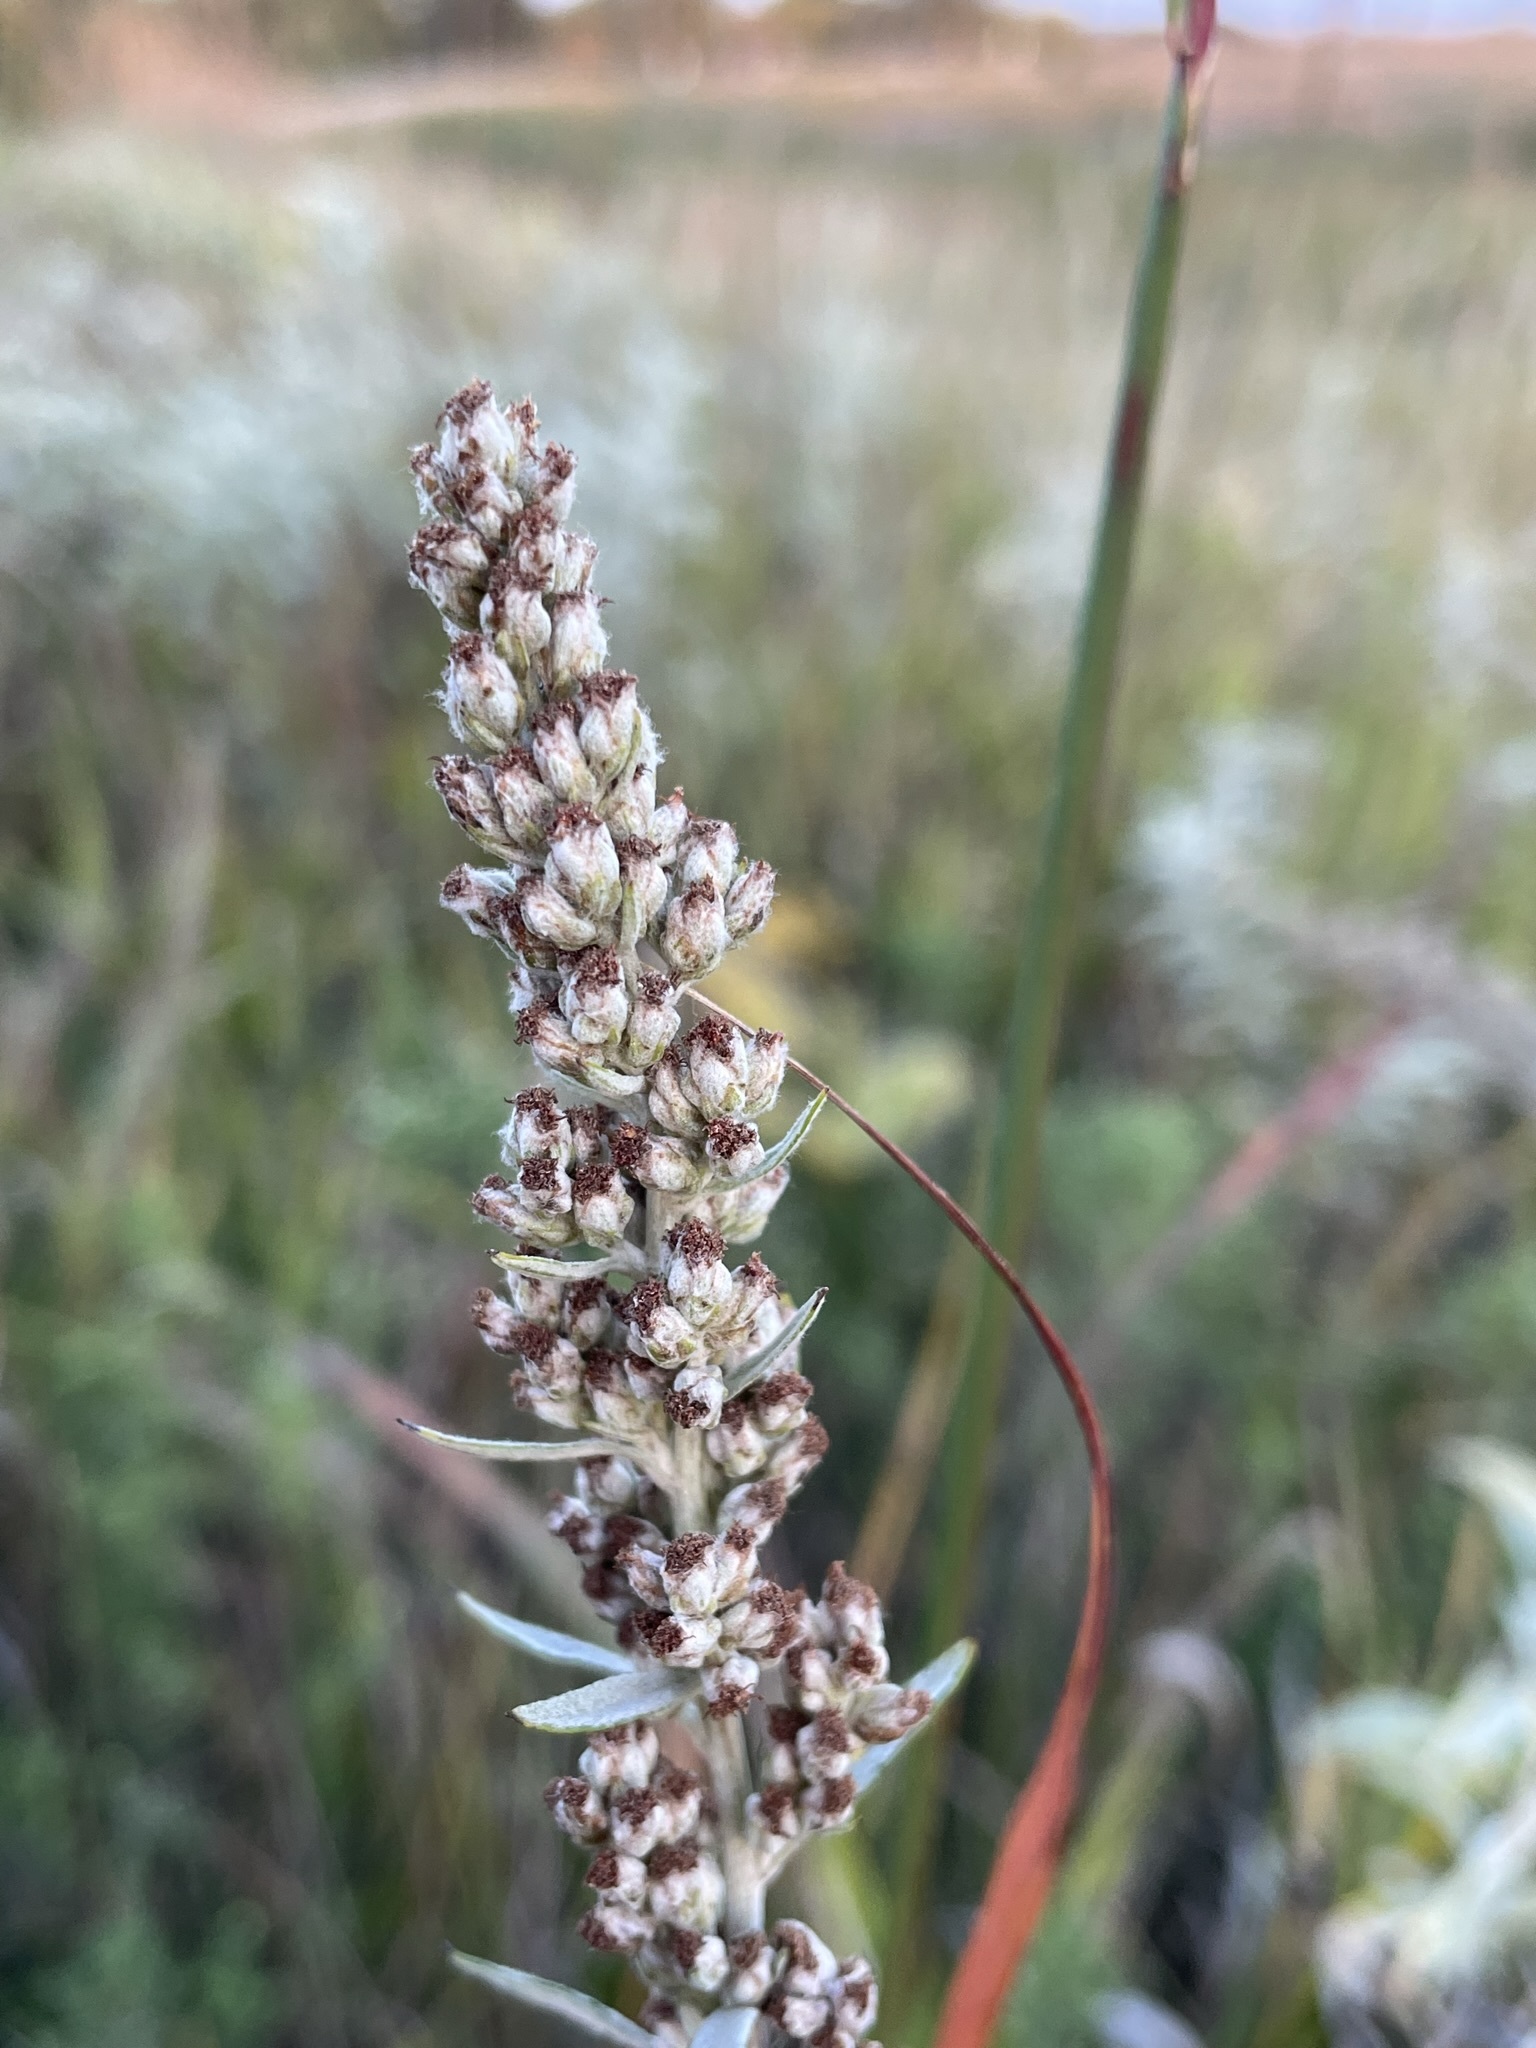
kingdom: Plantae
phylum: Tracheophyta
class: Magnoliopsida
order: Asterales
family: Asteraceae
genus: Artemisia
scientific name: Artemisia ludoviciana
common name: Western mugwort
